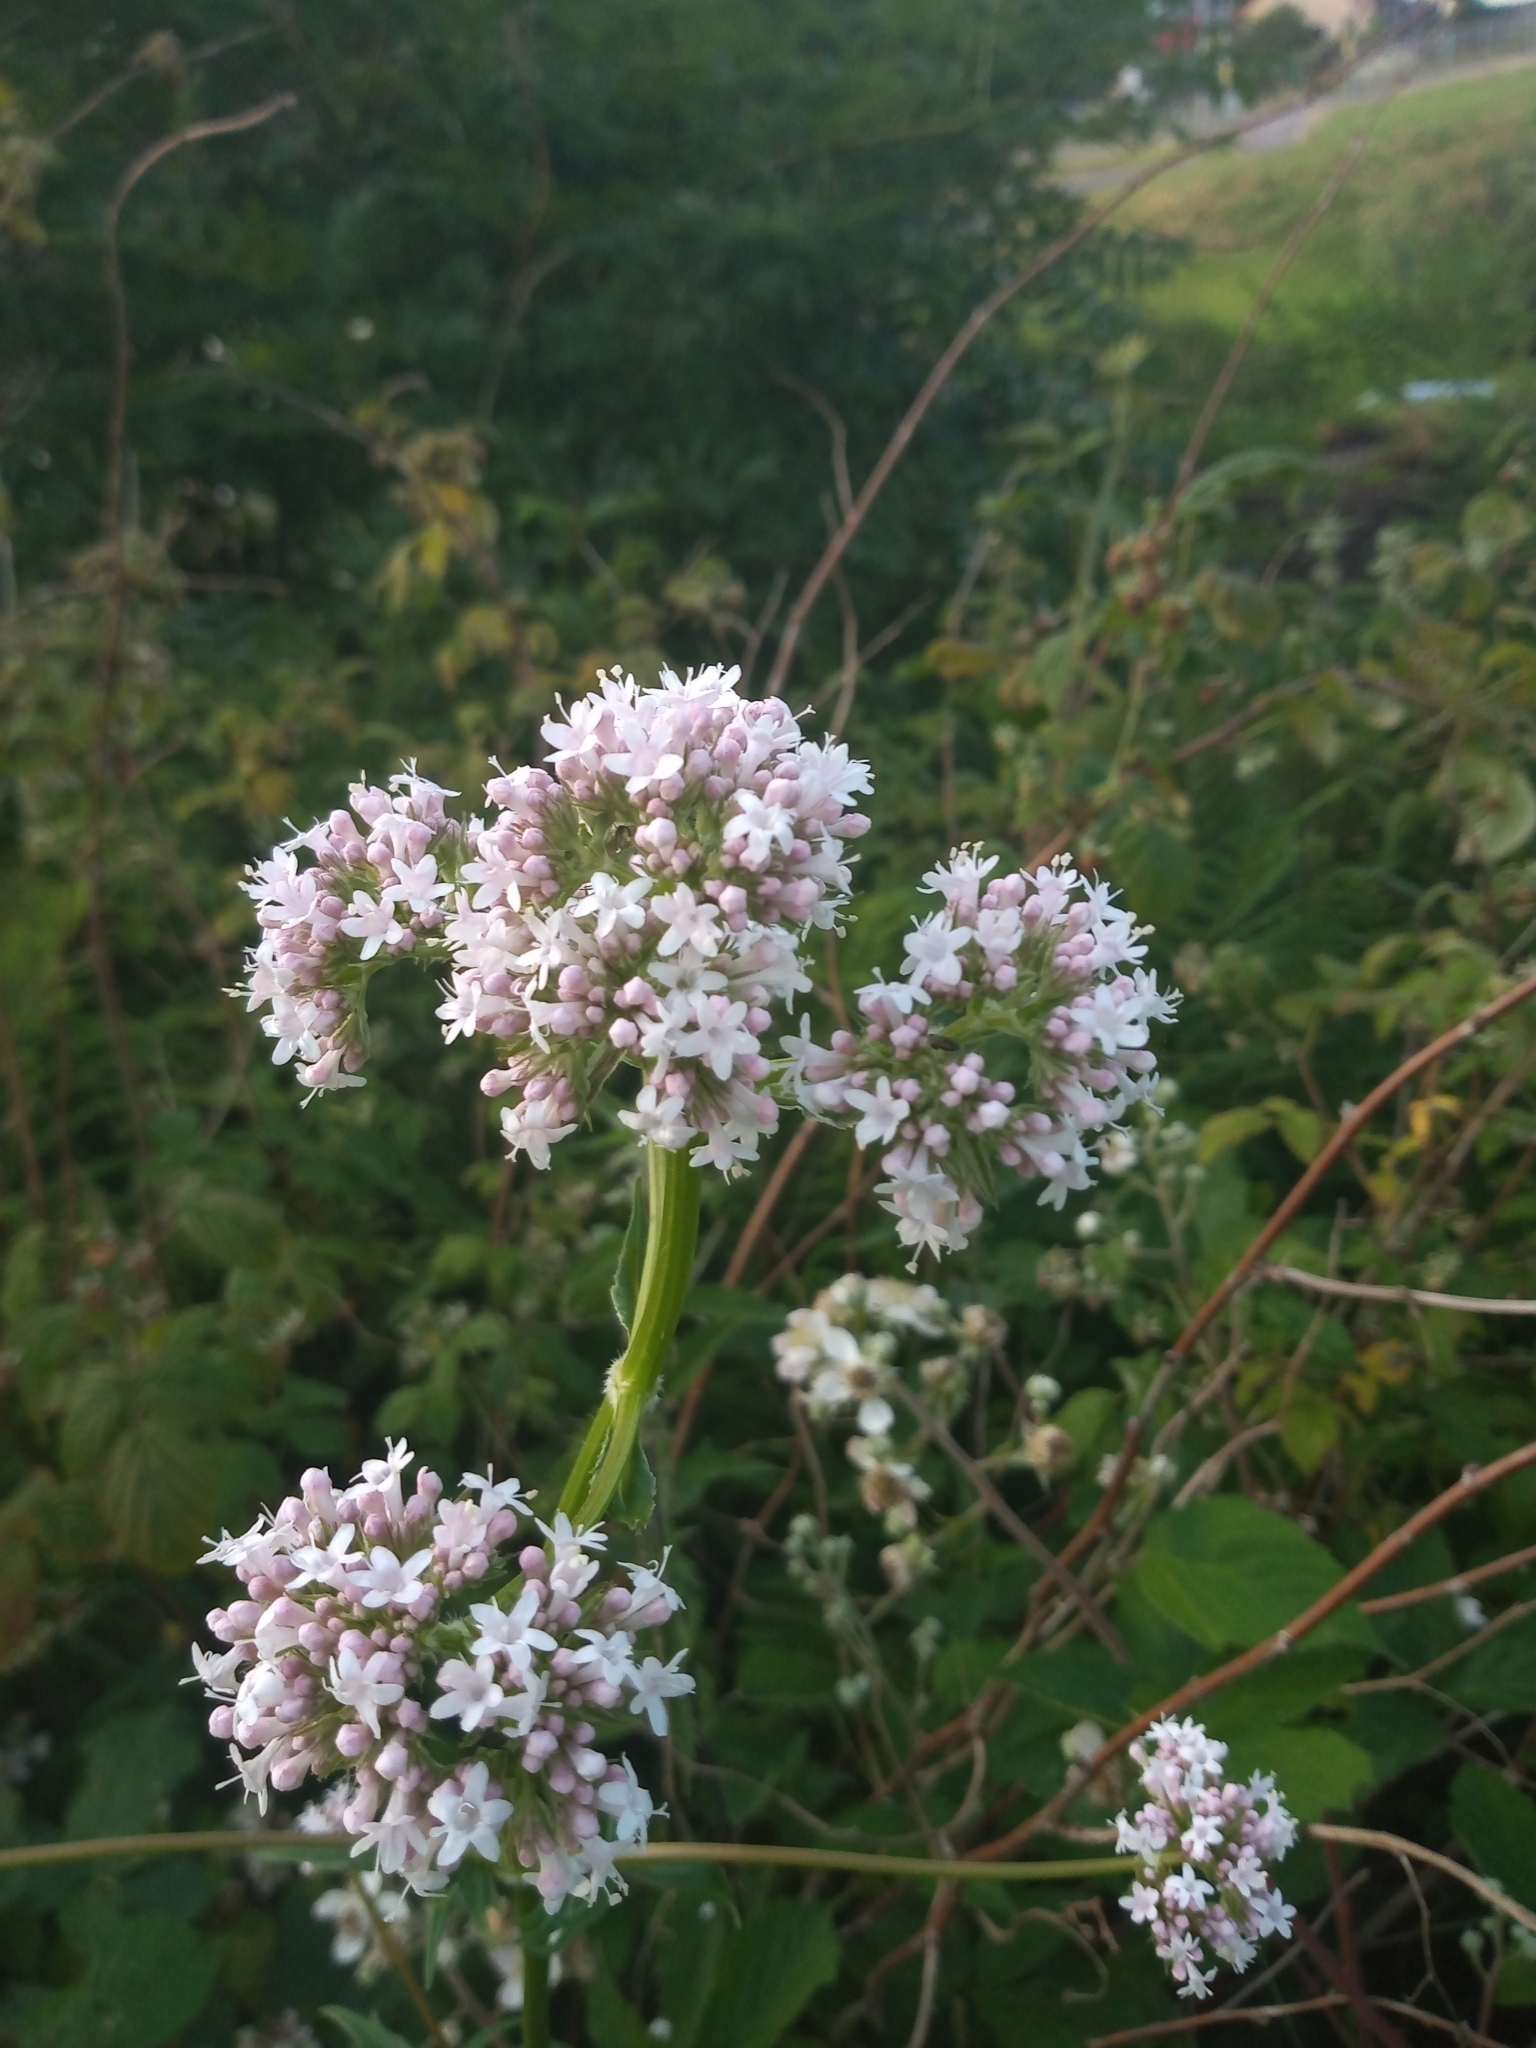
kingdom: Plantae
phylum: Tracheophyta
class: Magnoliopsida
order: Dipsacales
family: Caprifoliaceae
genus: Valeriana
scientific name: Valeriana officinalis
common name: Common valerian
